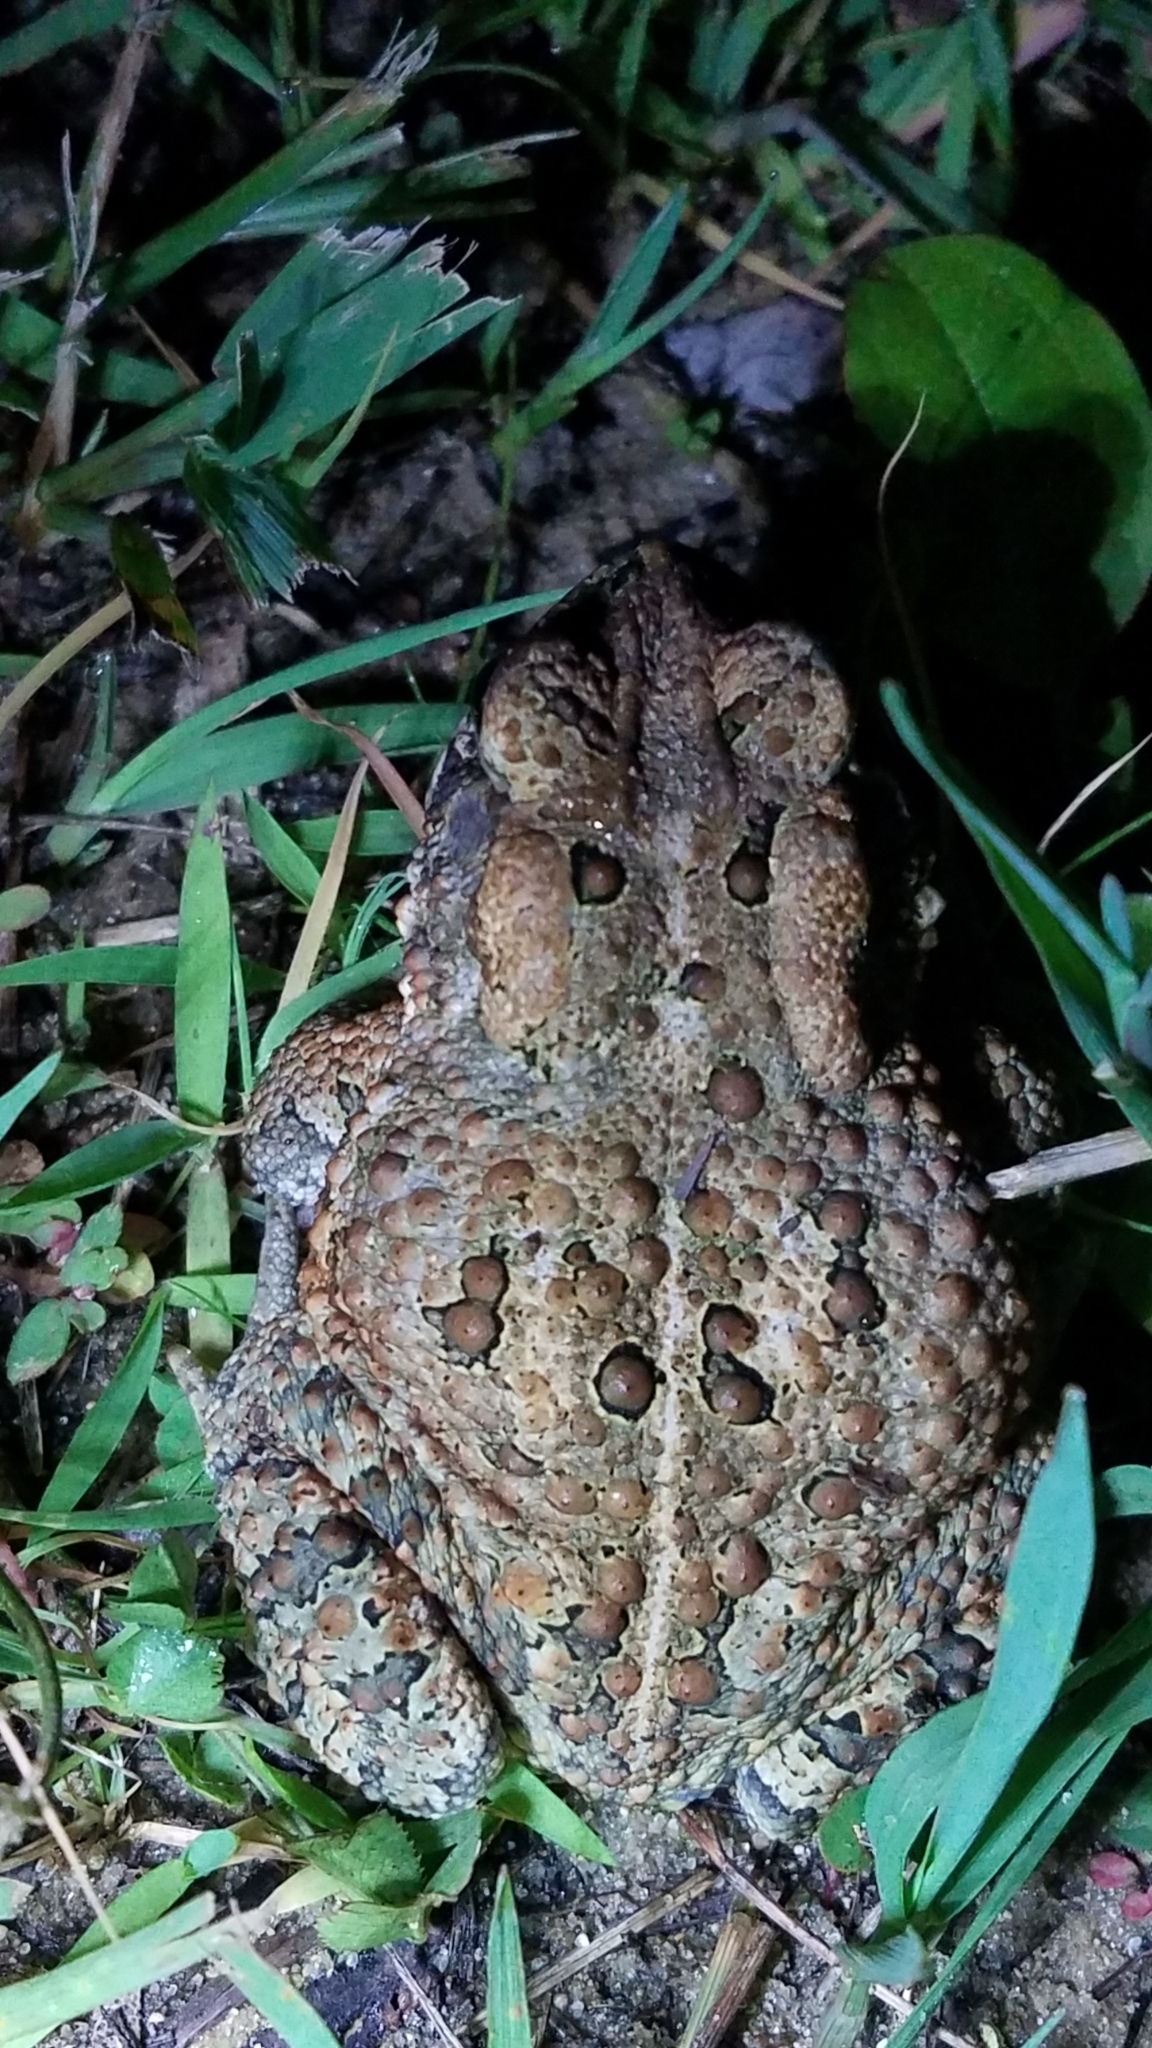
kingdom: Animalia
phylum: Chordata
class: Amphibia
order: Anura
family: Bufonidae
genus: Anaxyrus
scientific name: Anaxyrus americanus
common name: American toad
